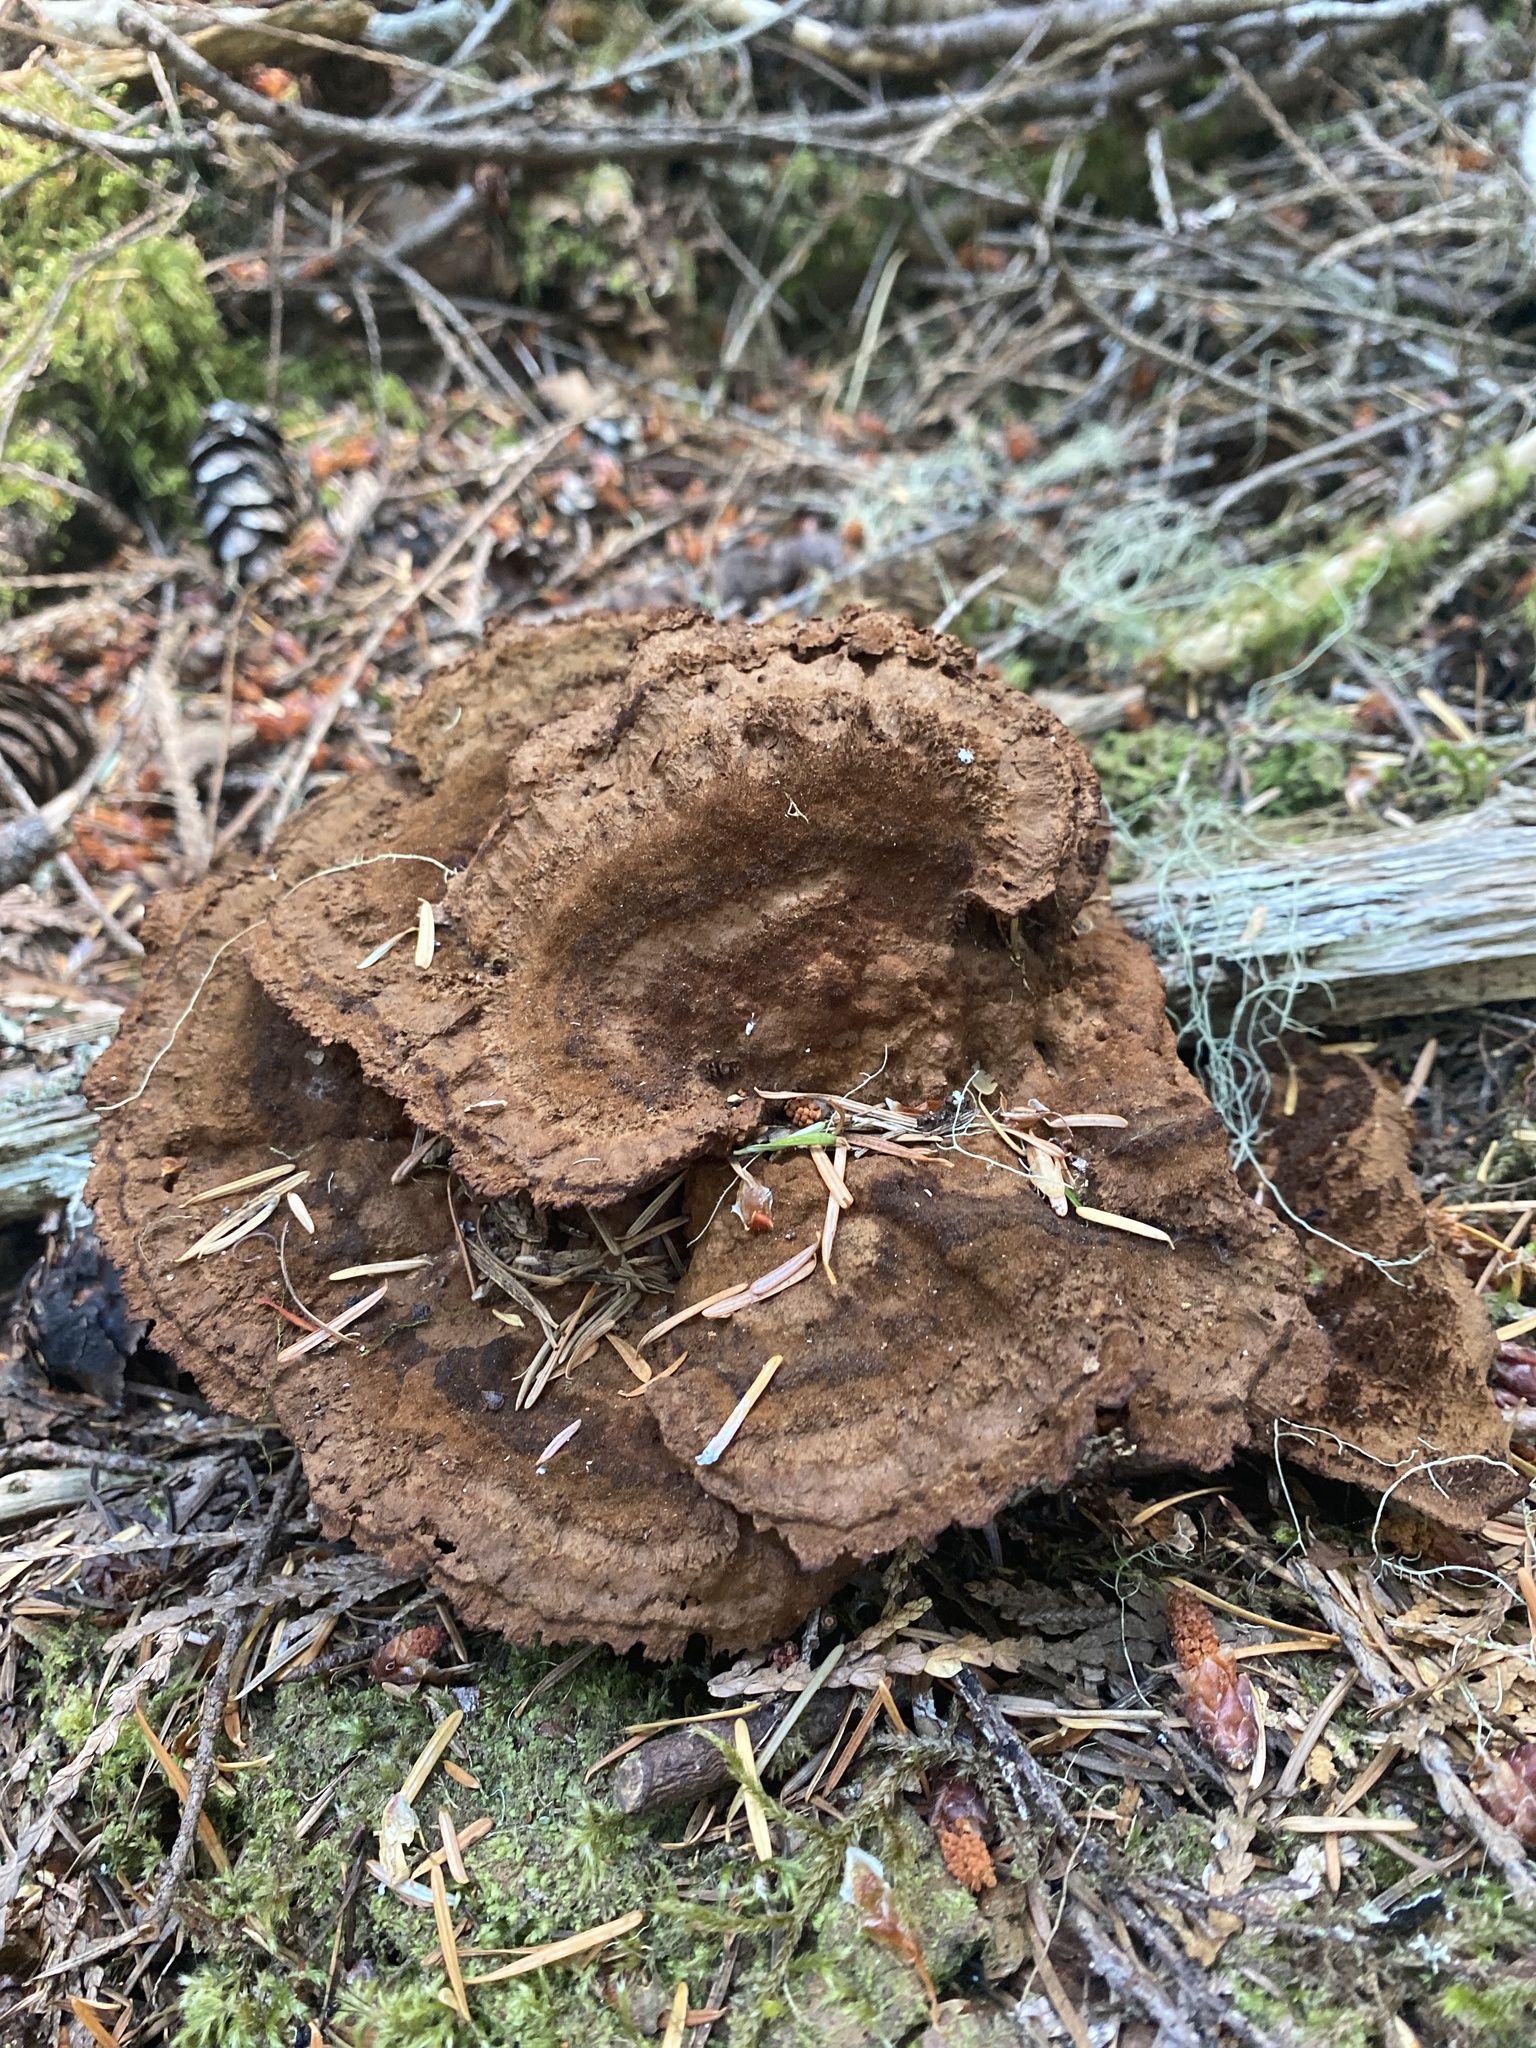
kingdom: Fungi
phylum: Basidiomycota
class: Agaricomycetes
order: Polyporales
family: Laetiporaceae
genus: Phaeolus
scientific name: Phaeolus schweinitzii
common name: Dyer's mazegill
